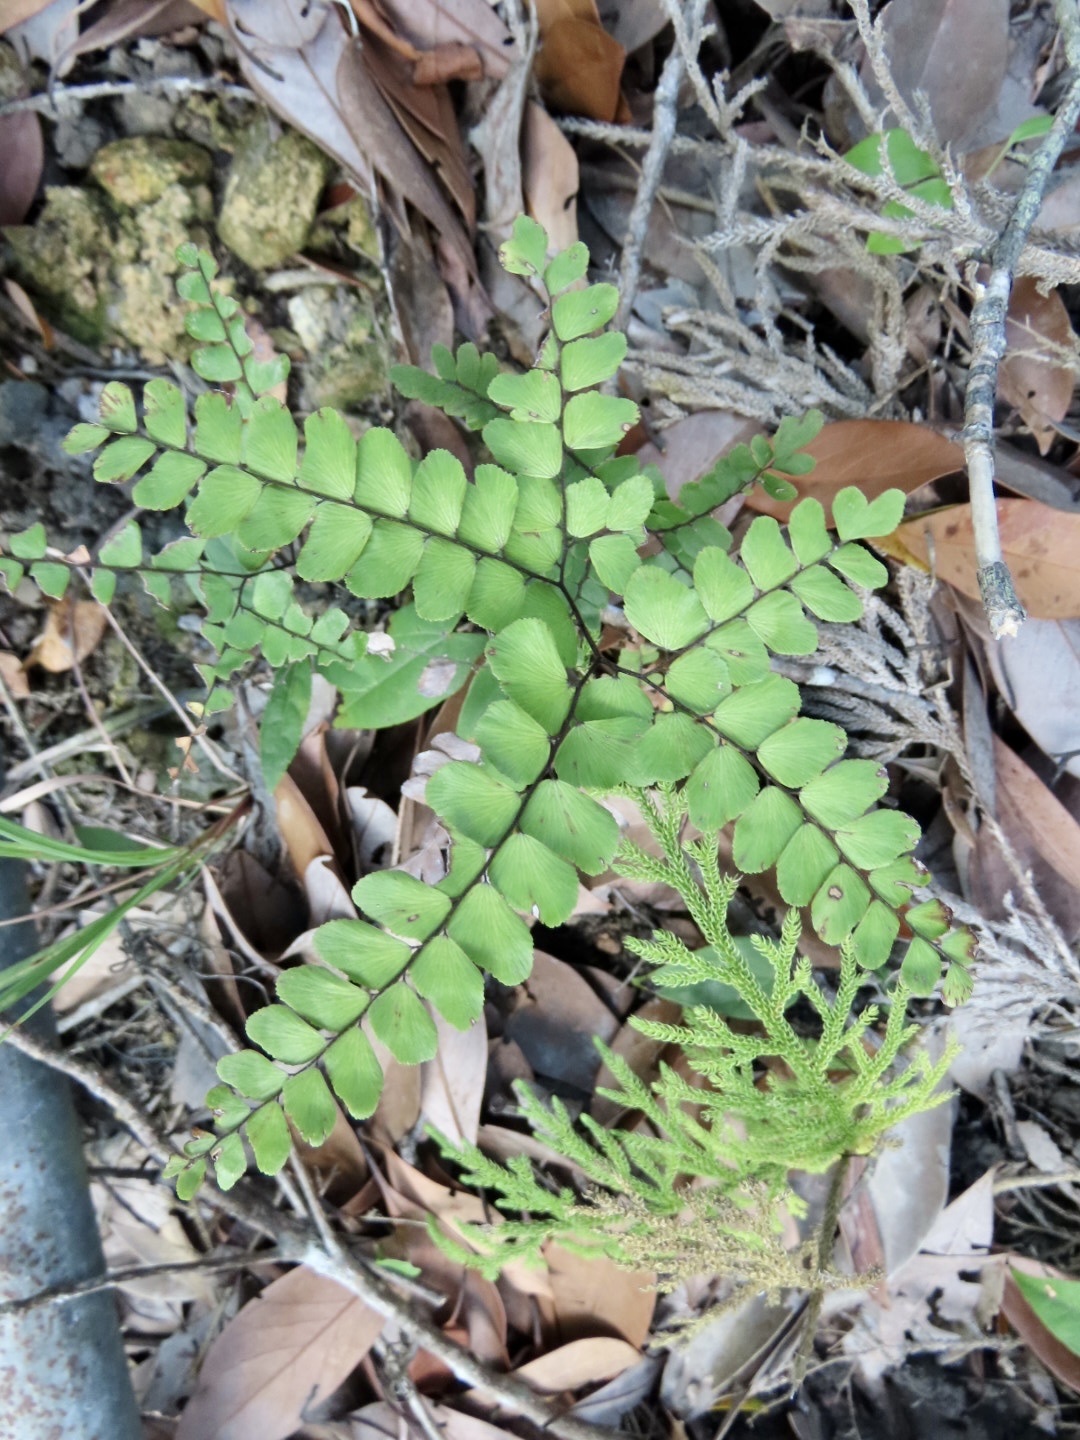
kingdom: Plantae
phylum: Tracheophyta
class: Polypodiopsida
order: Polypodiales
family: Pteridaceae
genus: Adiantum
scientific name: Adiantum flabellulatum
